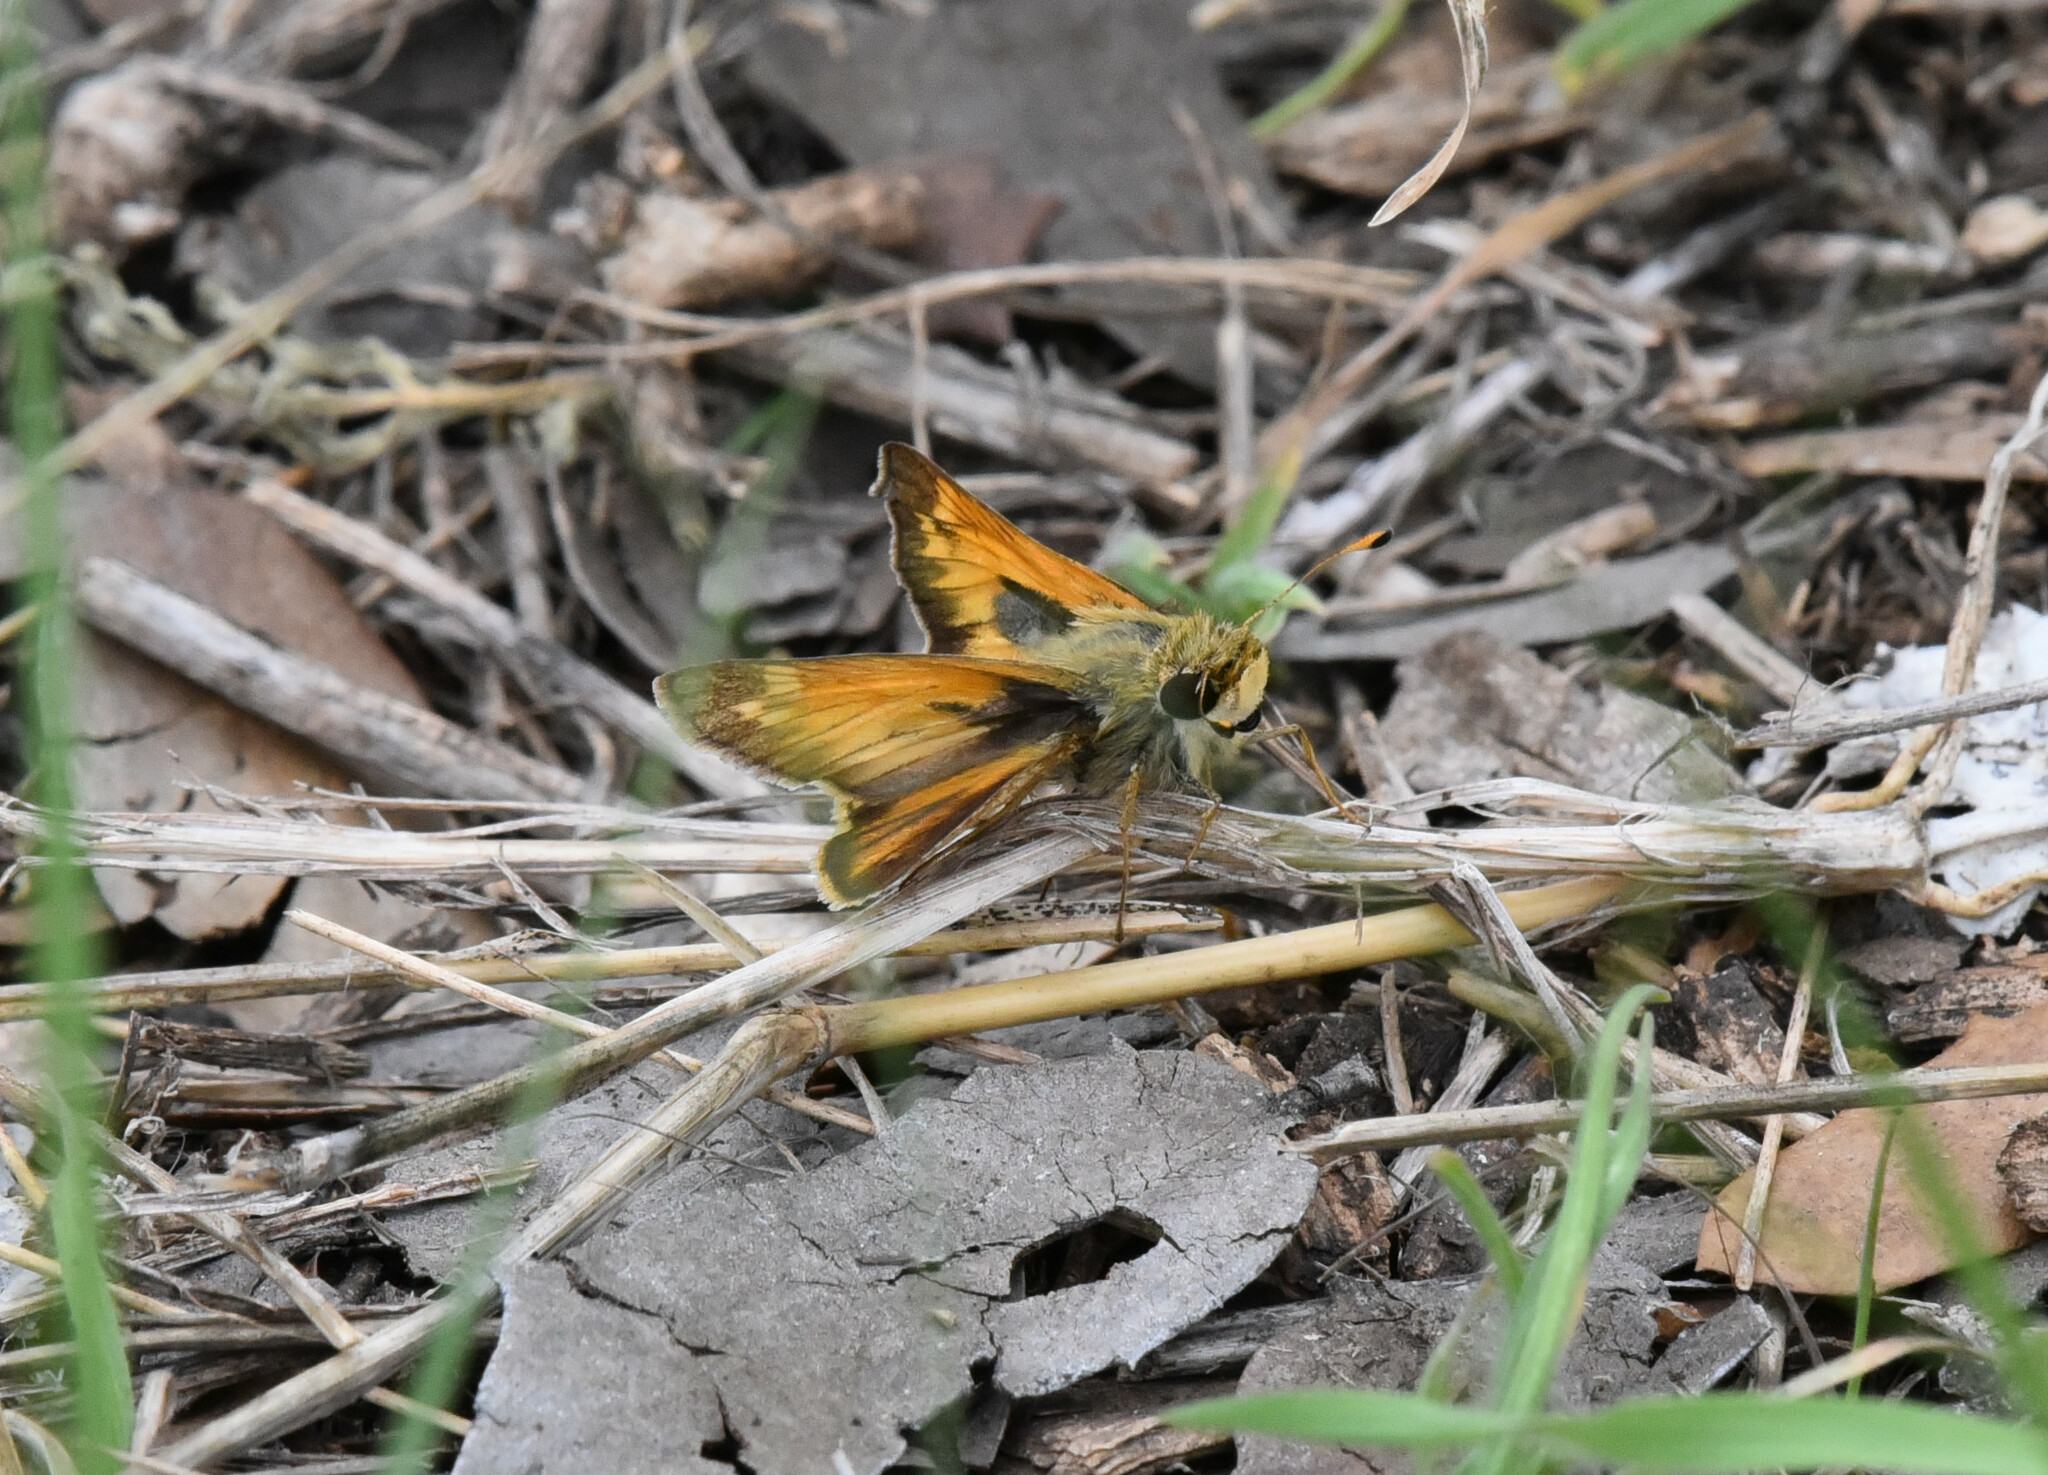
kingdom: Animalia
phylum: Arthropoda
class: Insecta
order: Lepidoptera
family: Hesperiidae
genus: Atalopedes
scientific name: Atalopedes
